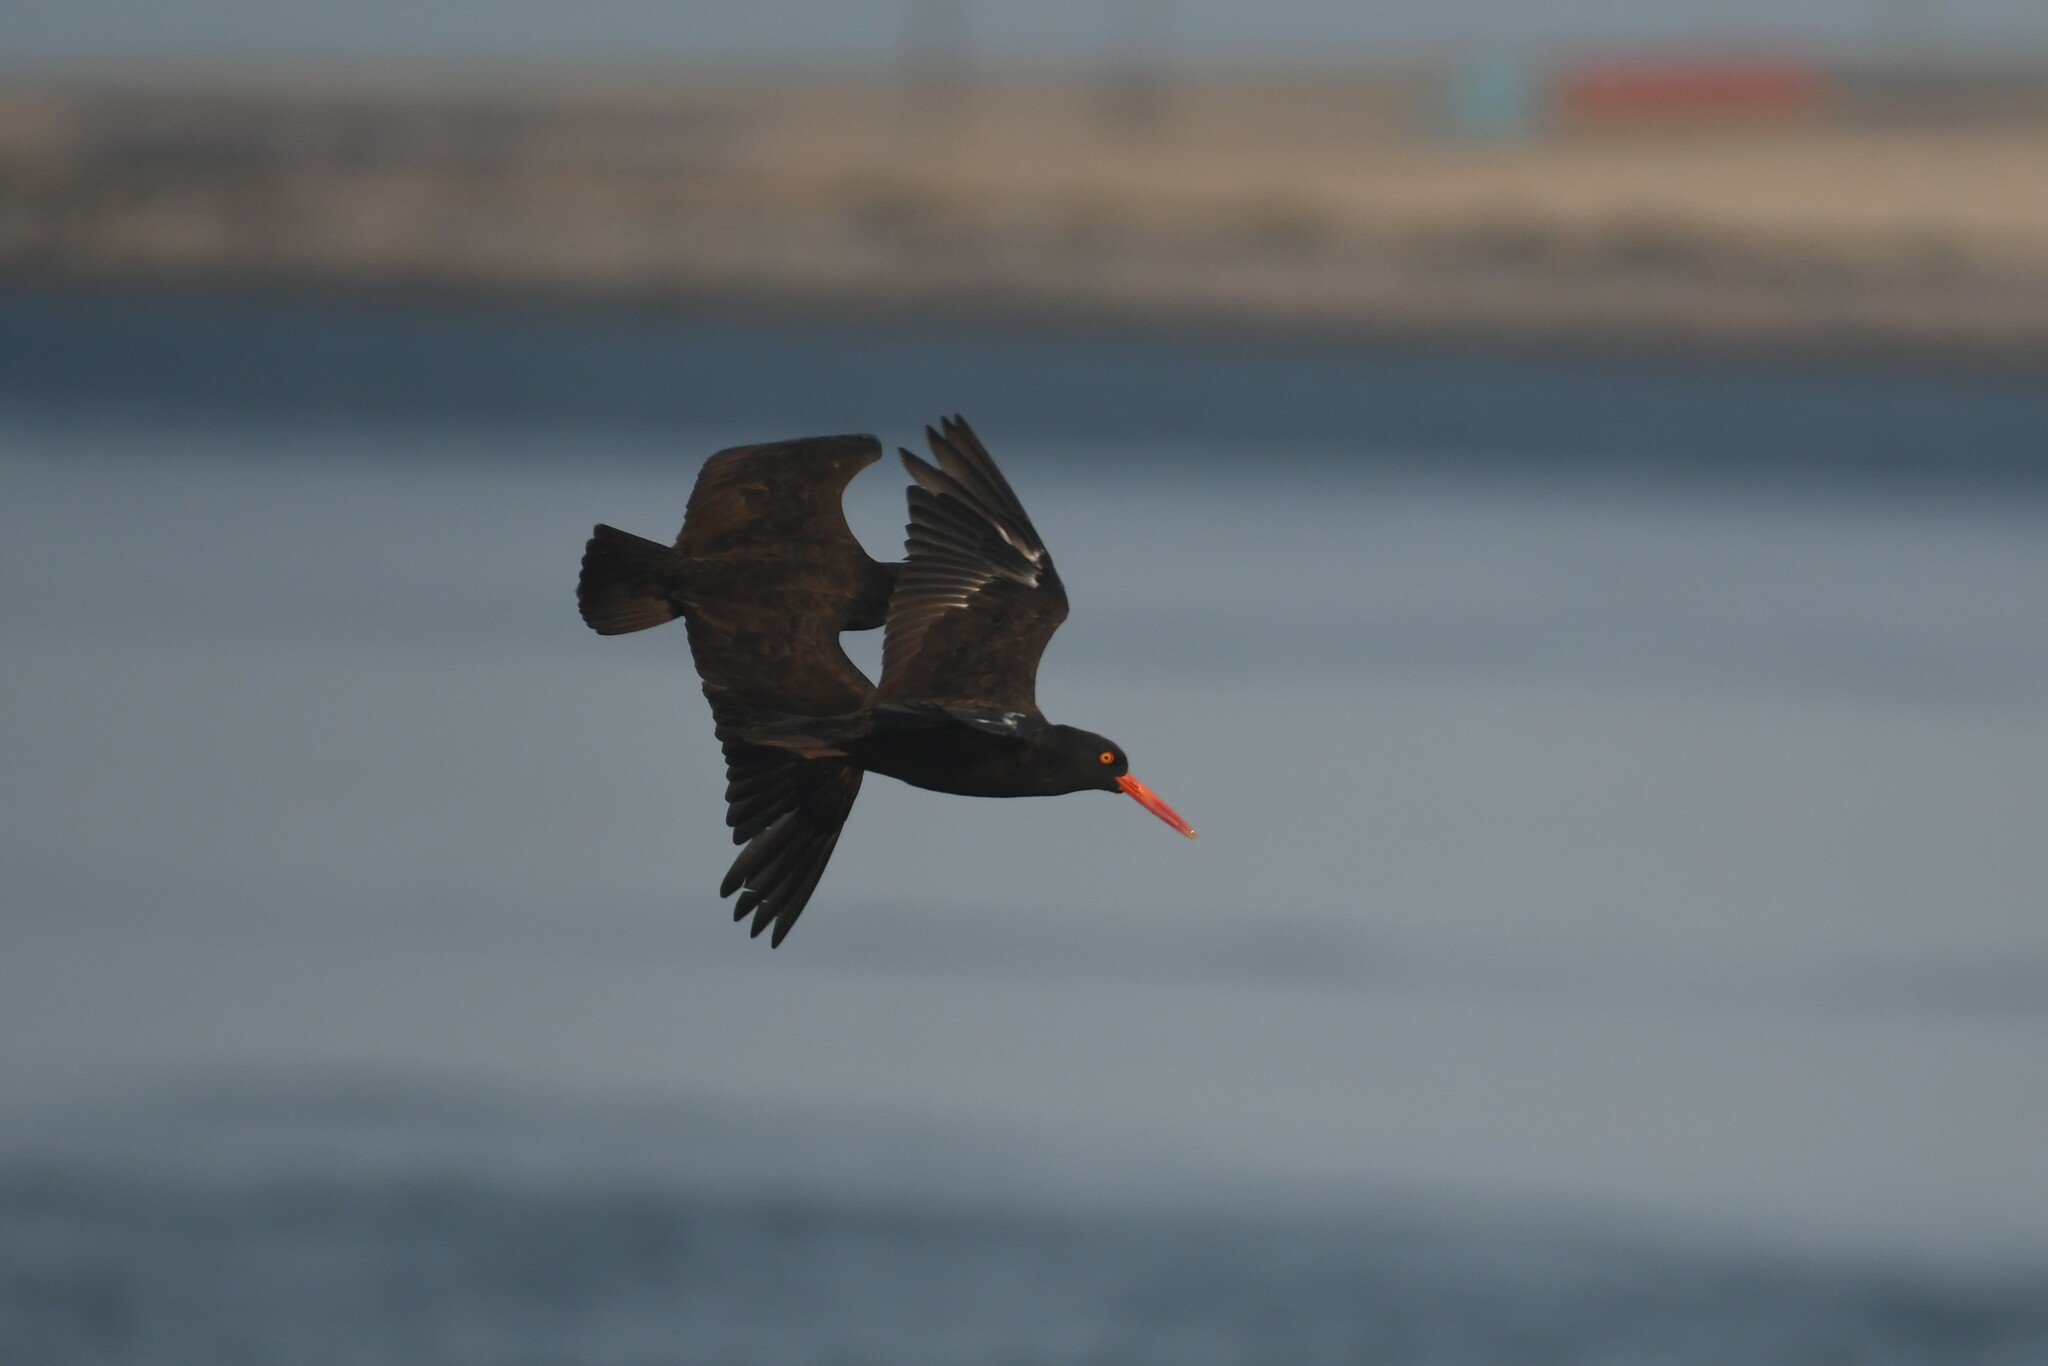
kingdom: Animalia
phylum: Chordata
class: Aves
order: Charadriiformes
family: Haematopodidae
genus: Haematopus
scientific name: Haematopus bachmani
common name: Black oystercatcher
